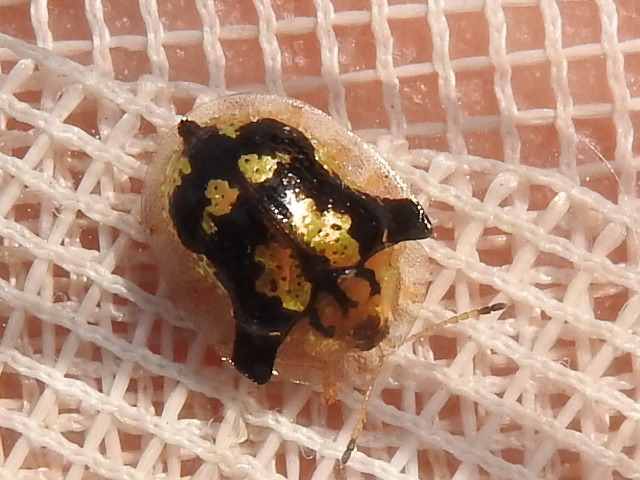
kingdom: Animalia
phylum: Arthropoda
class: Insecta
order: Coleoptera
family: Chrysomelidae
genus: Deloyala
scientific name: Deloyala guttata
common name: Mottled tortoise beetle
